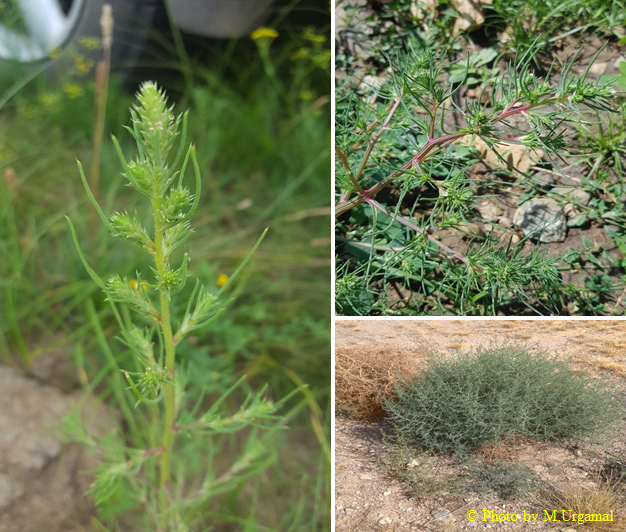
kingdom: Plantae
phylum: Tracheophyta
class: Magnoliopsida
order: Caryophyllales
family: Amaranthaceae
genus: Salsola
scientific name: Salsola collina
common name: Tumbleweed
